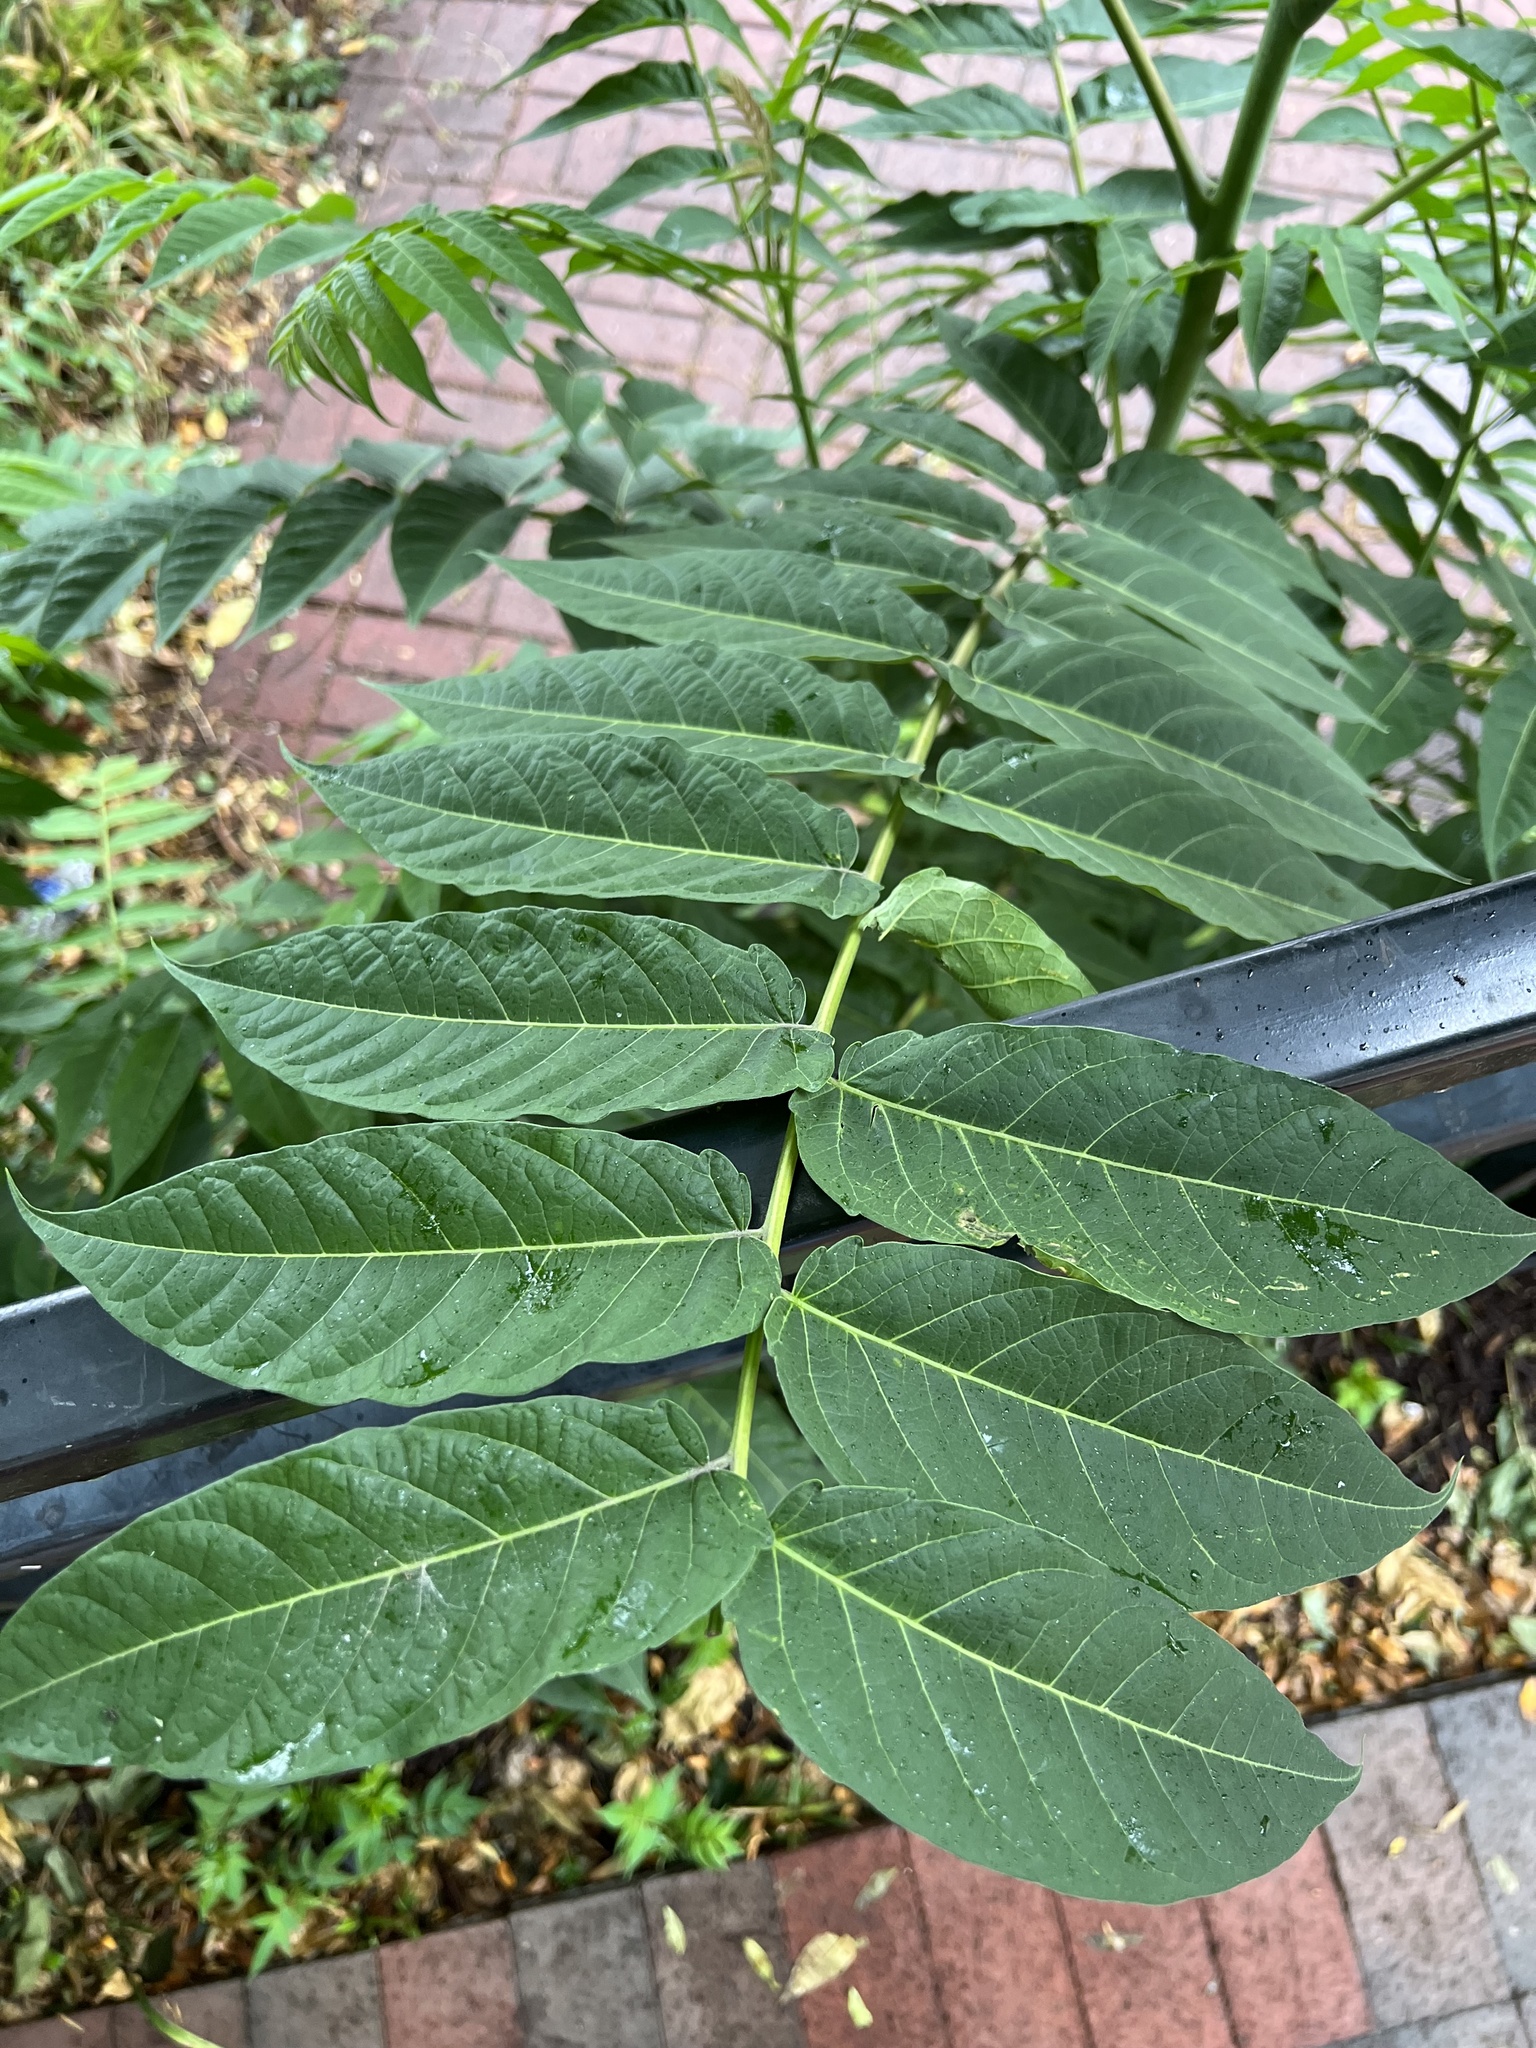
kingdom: Plantae
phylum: Tracheophyta
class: Magnoliopsida
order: Sapindales
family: Simaroubaceae
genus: Ailanthus
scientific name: Ailanthus altissima
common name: Tree-of-heaven
